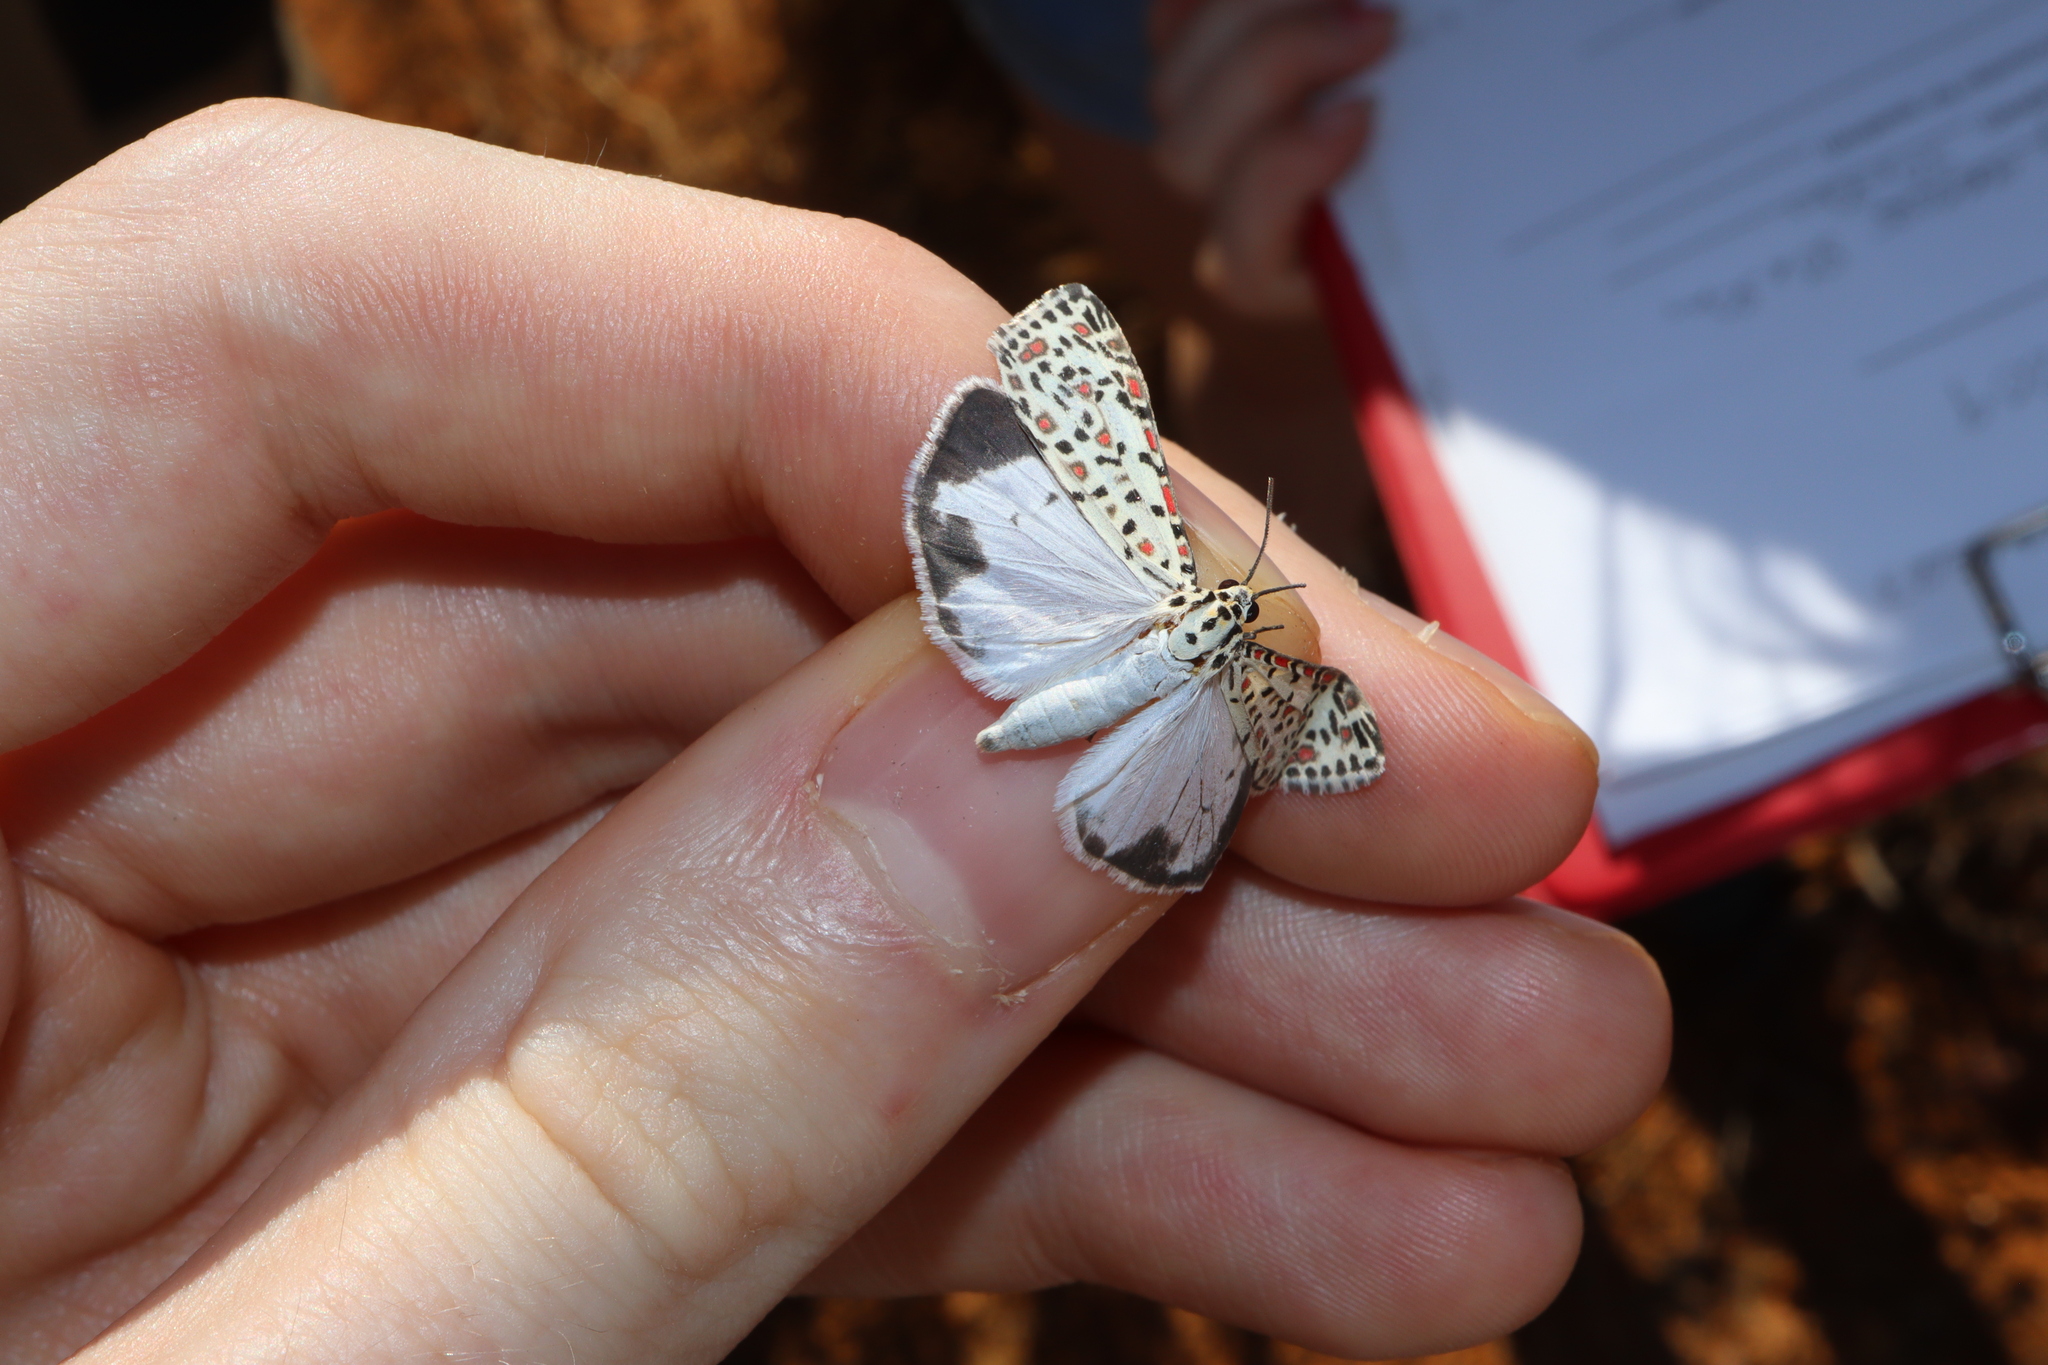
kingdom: Animalia
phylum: Arthropoda
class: Insecta
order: Lepidoptera
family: Erebidae
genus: Utetheisa
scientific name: Utetheisa pulchelloides
